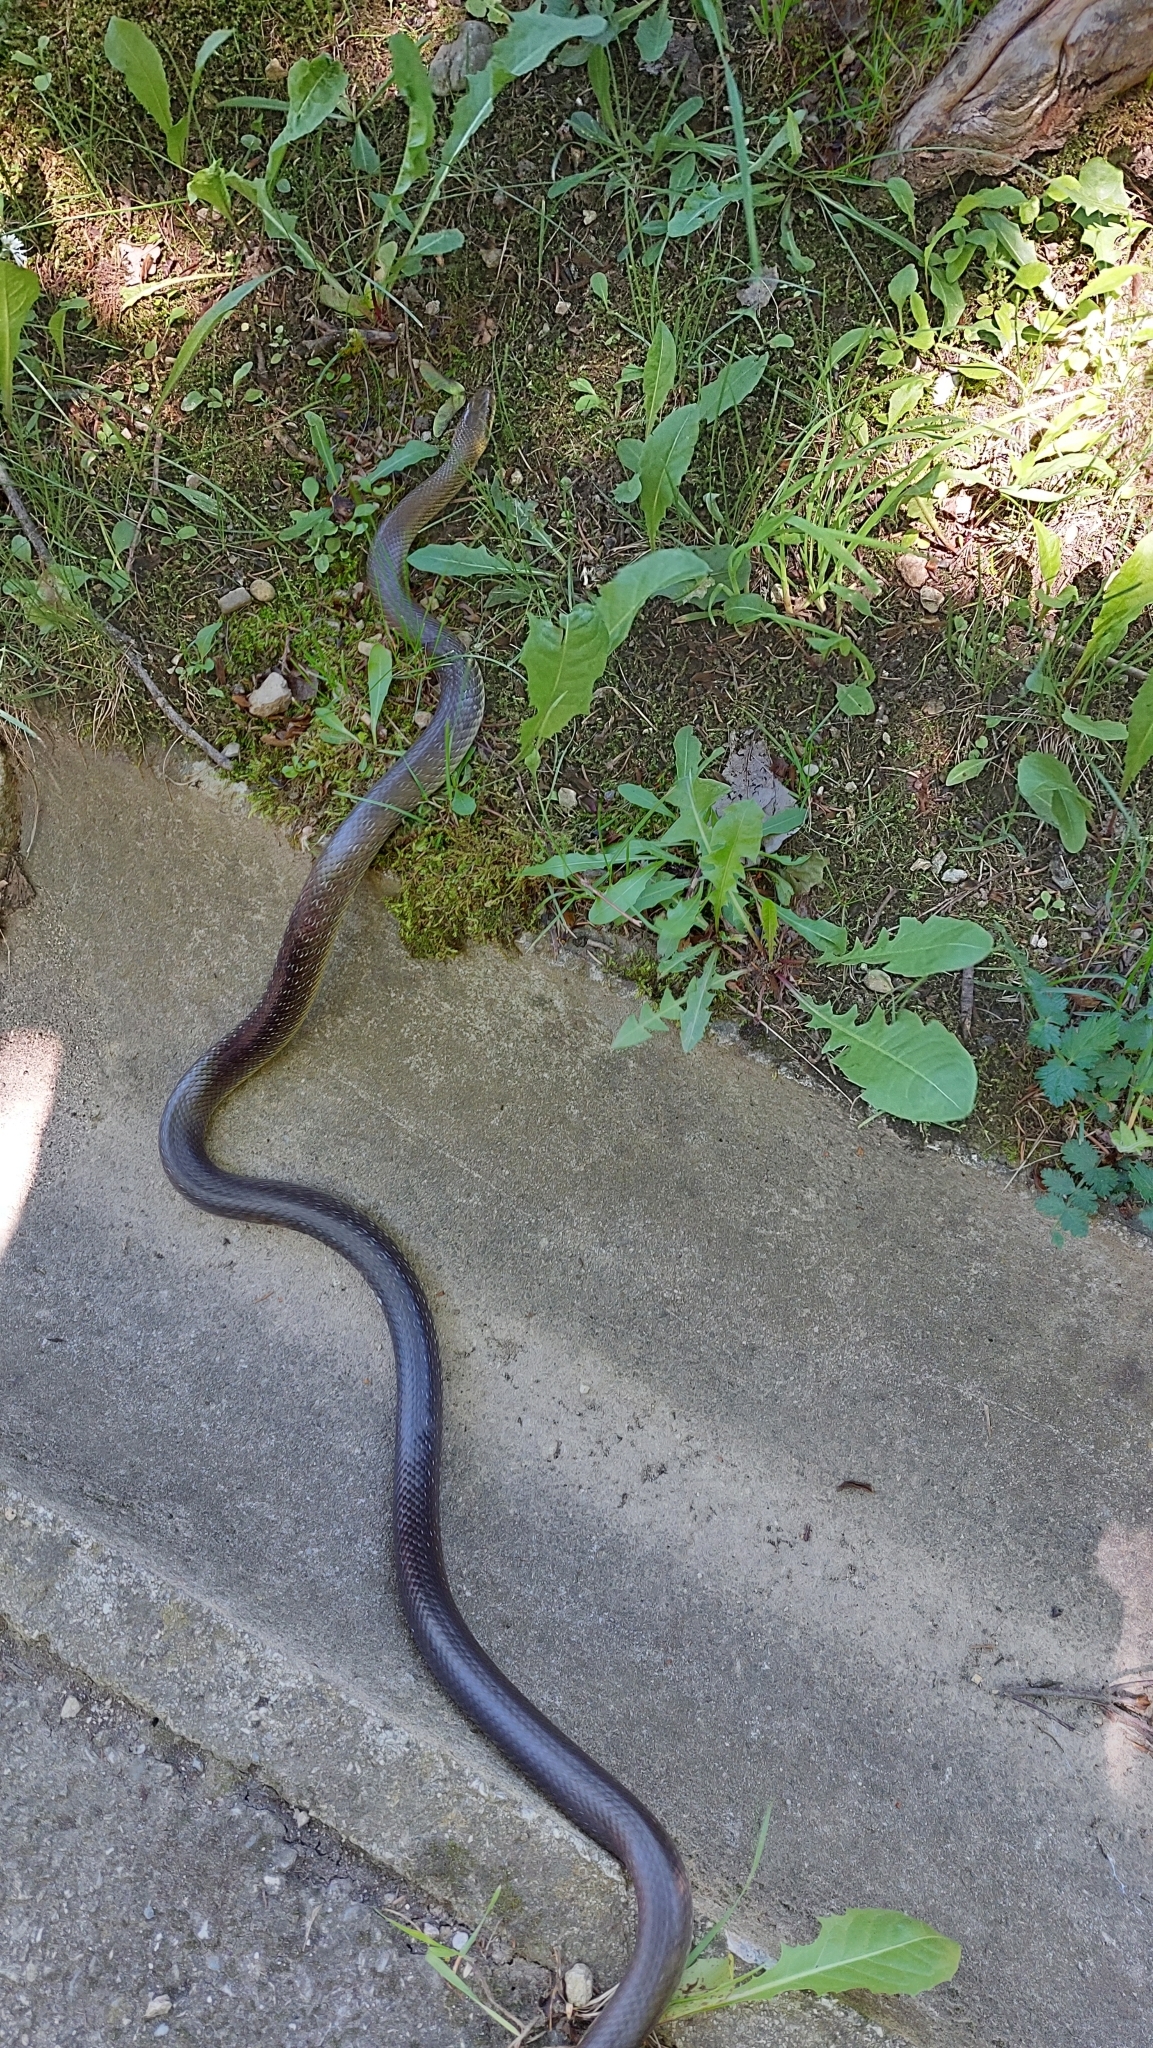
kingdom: Animalia
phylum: Chordata
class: Squamata
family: Colubridae
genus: Zamenis
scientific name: Zamenis longissimus
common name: Aesculapean snake
